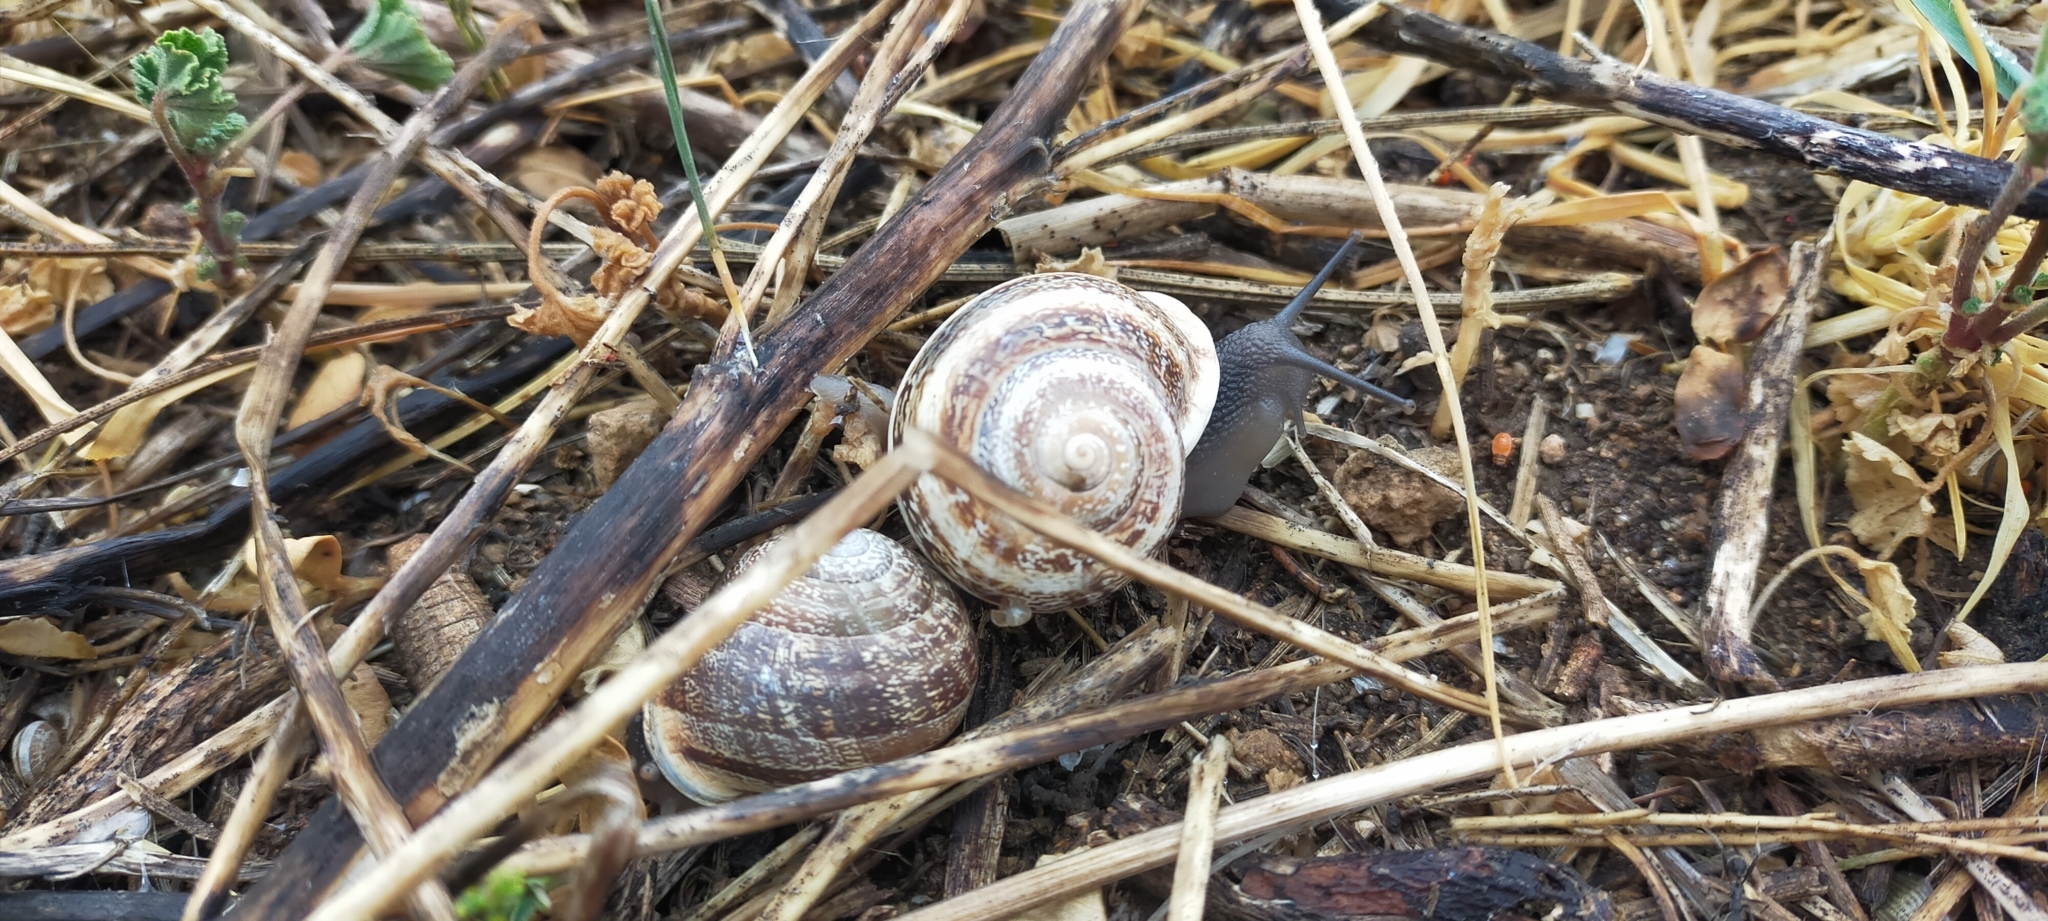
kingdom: Animalia
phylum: Mollusca
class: Gastropoda
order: Stylommatophora
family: Helicidae
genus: Eobania
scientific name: Eobania vermiculata
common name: Chocolateband snail
